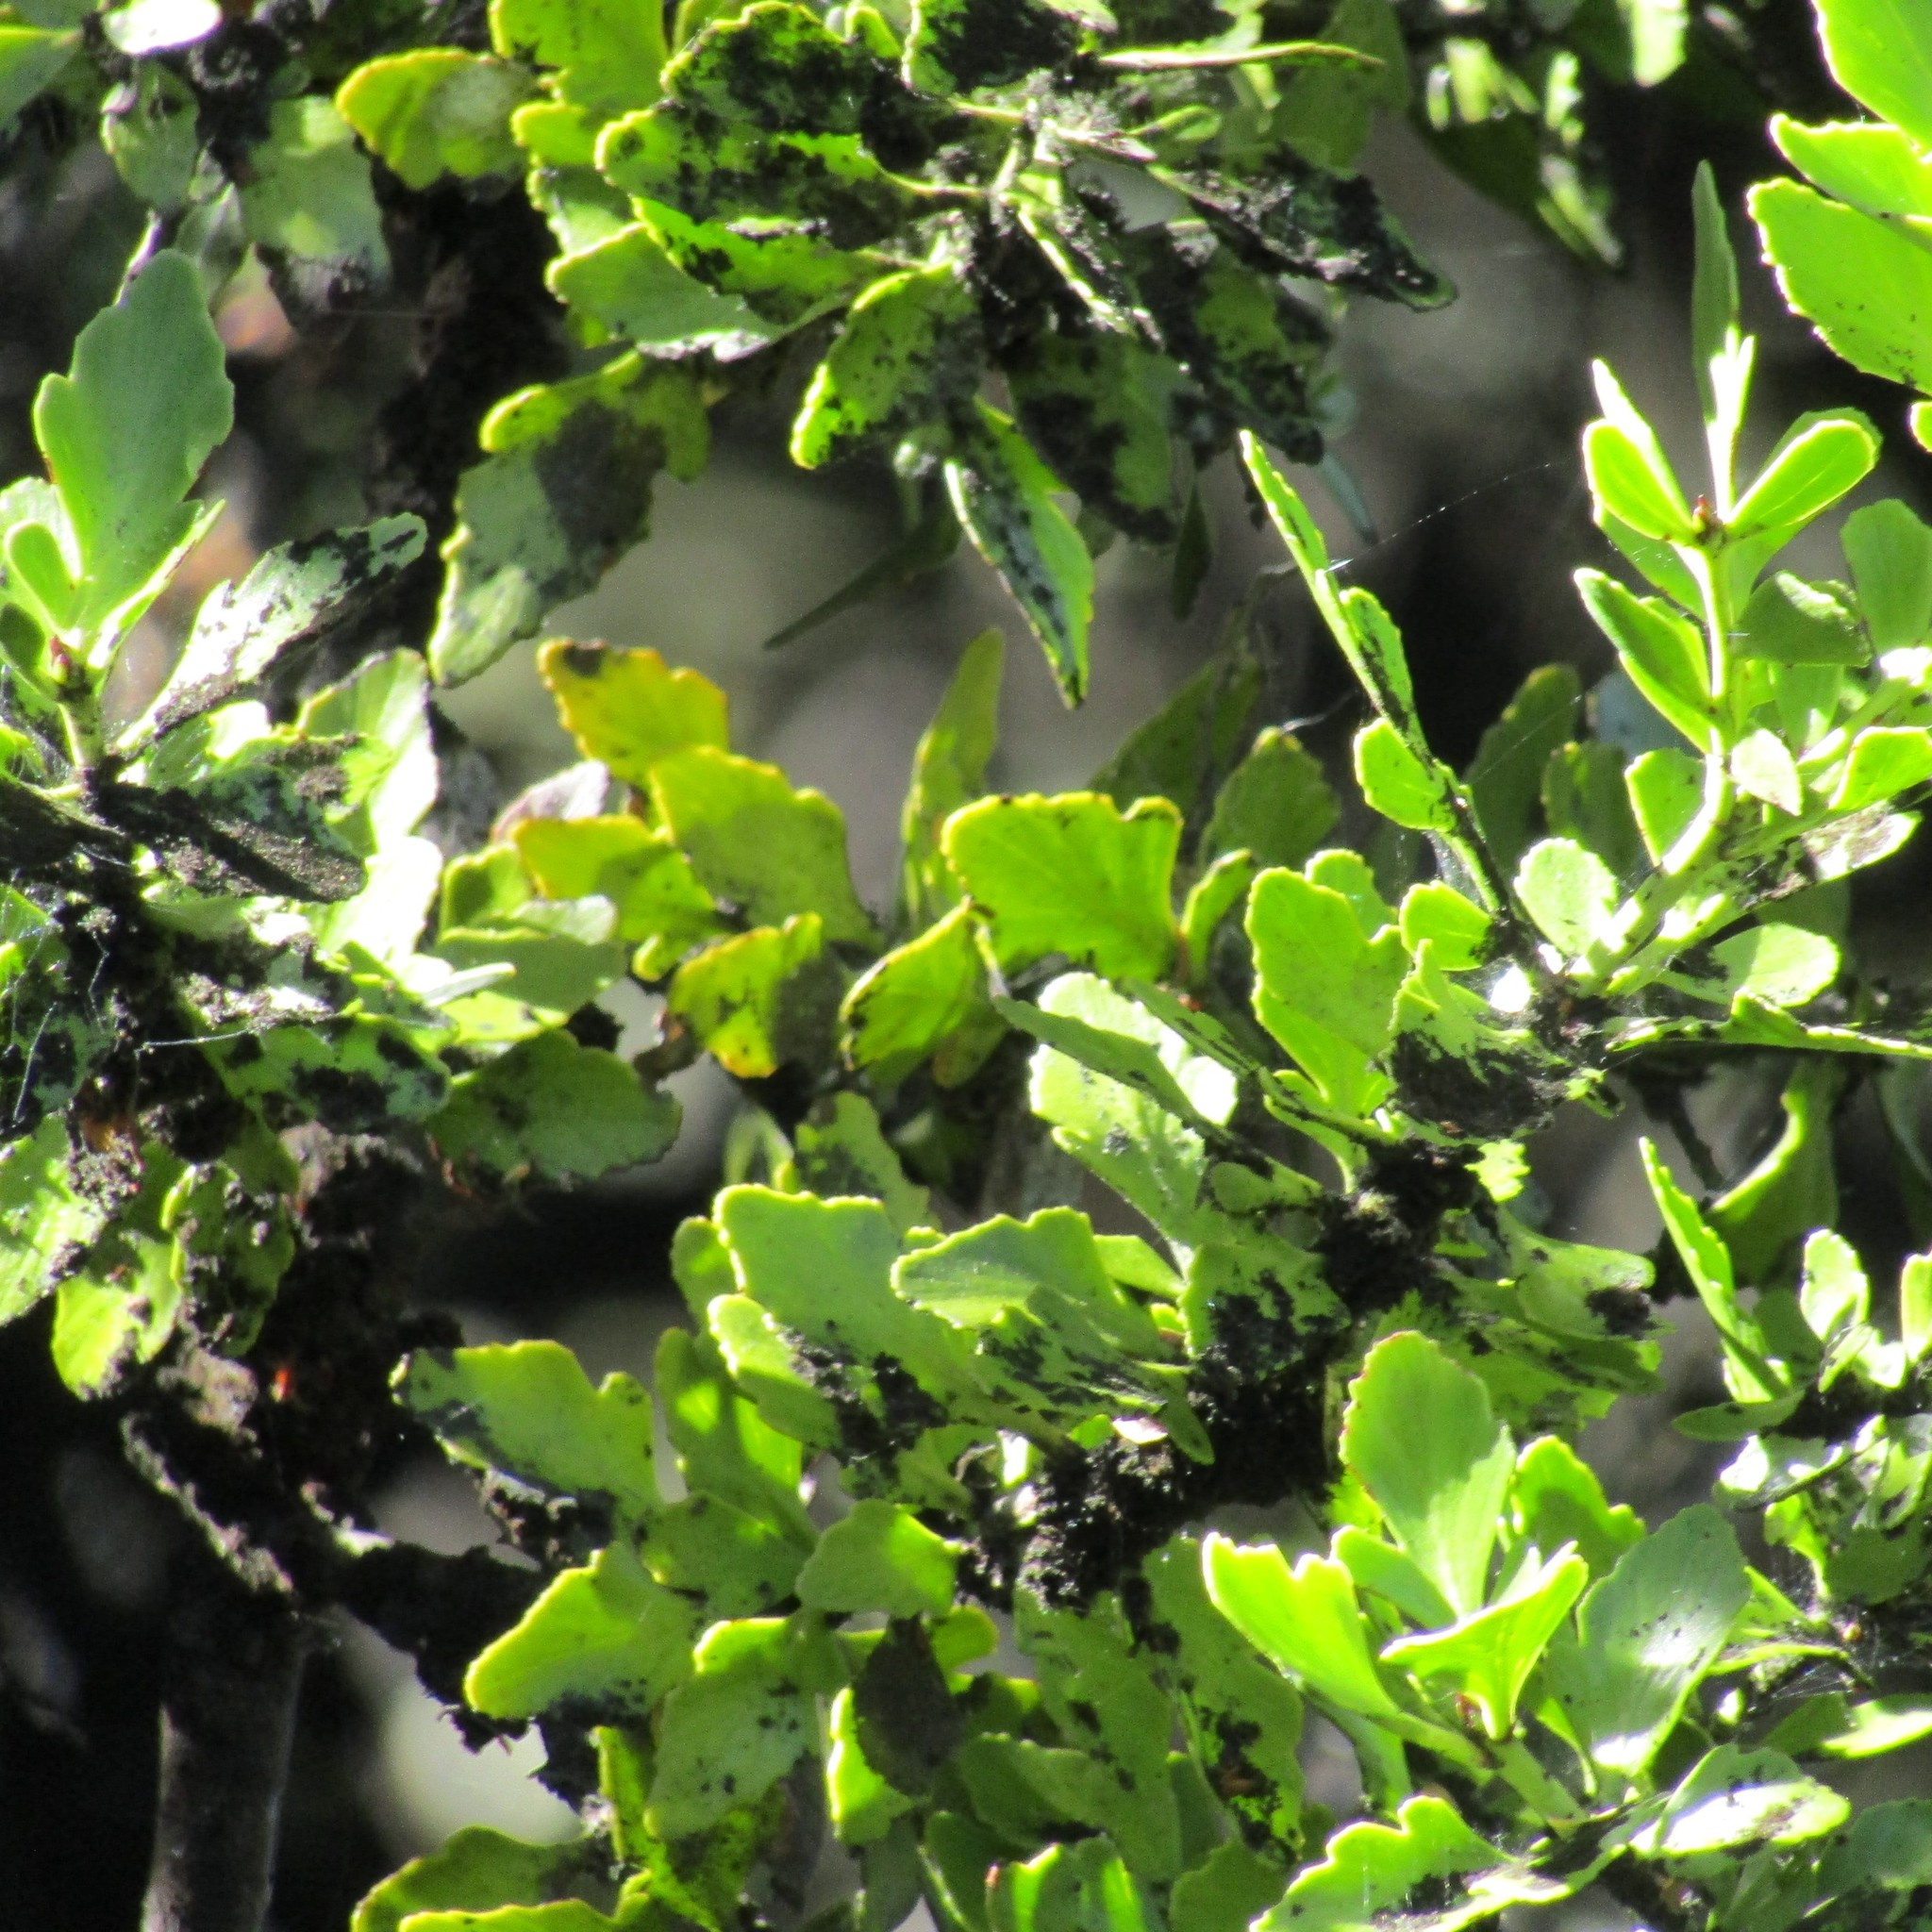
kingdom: Plantae
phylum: Tracheophyta
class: Pinopsida
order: Pinales
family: Phyllocladaceae
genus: Phyllocladus
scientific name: Phyllocladus trichomanoides
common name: Celery pine
